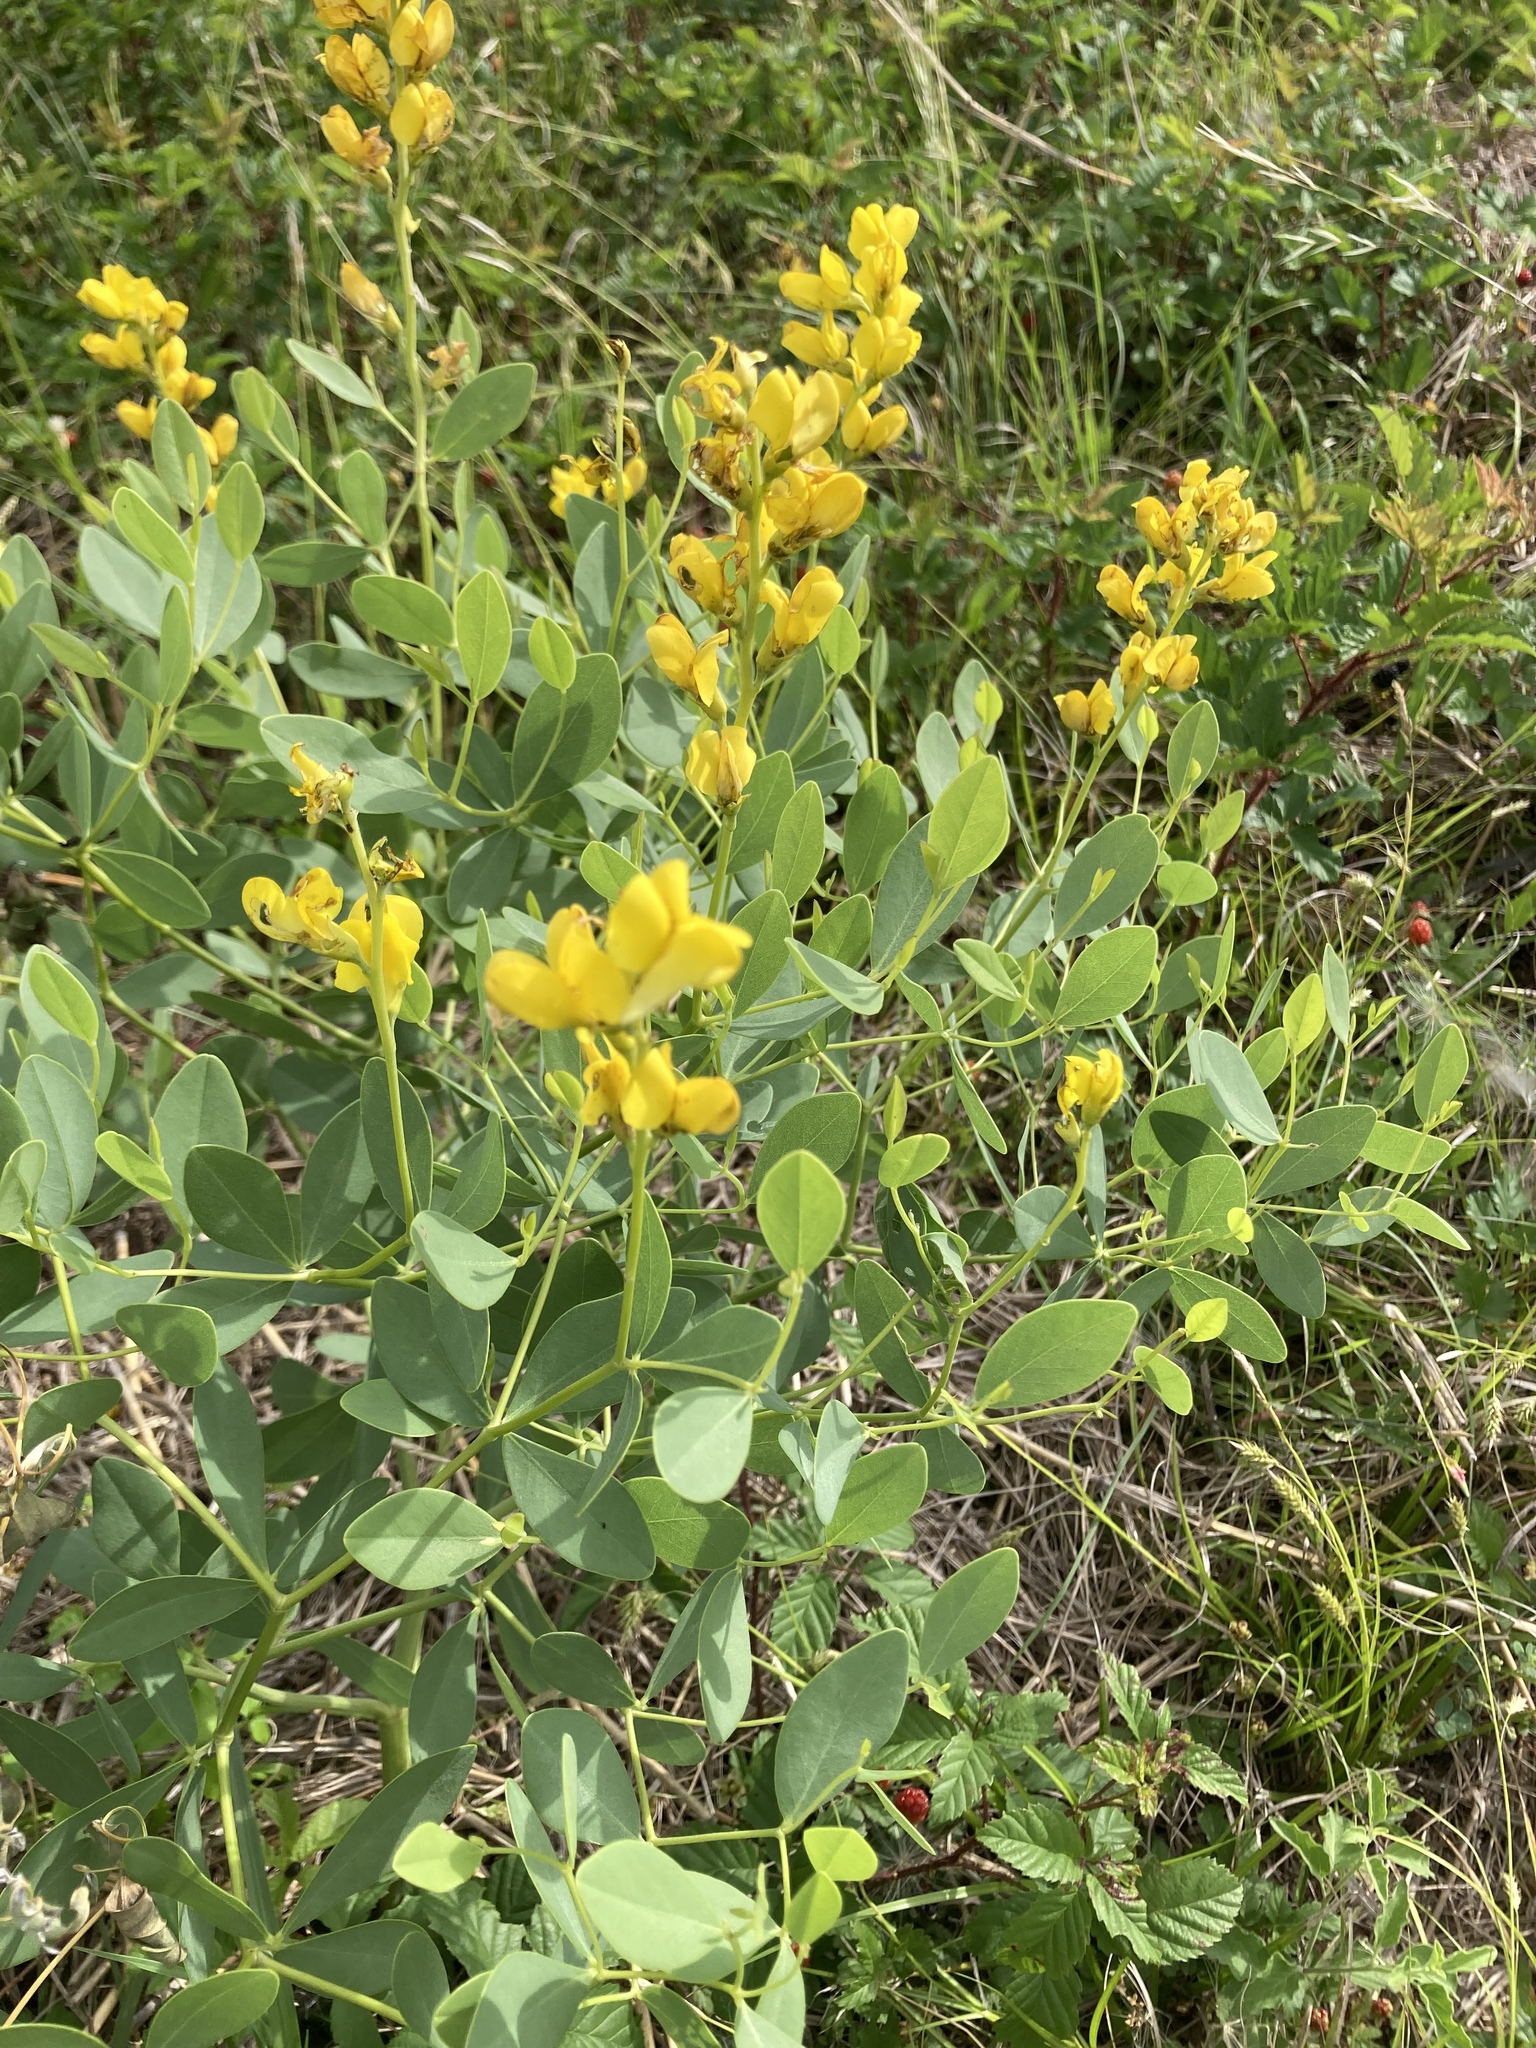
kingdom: Plantae
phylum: Tracheophyta
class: Magnoliopsida
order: Fabales
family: Fabaceae
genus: Baptisia
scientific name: Baptisia sphaerocarpa
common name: Round wild indigo
